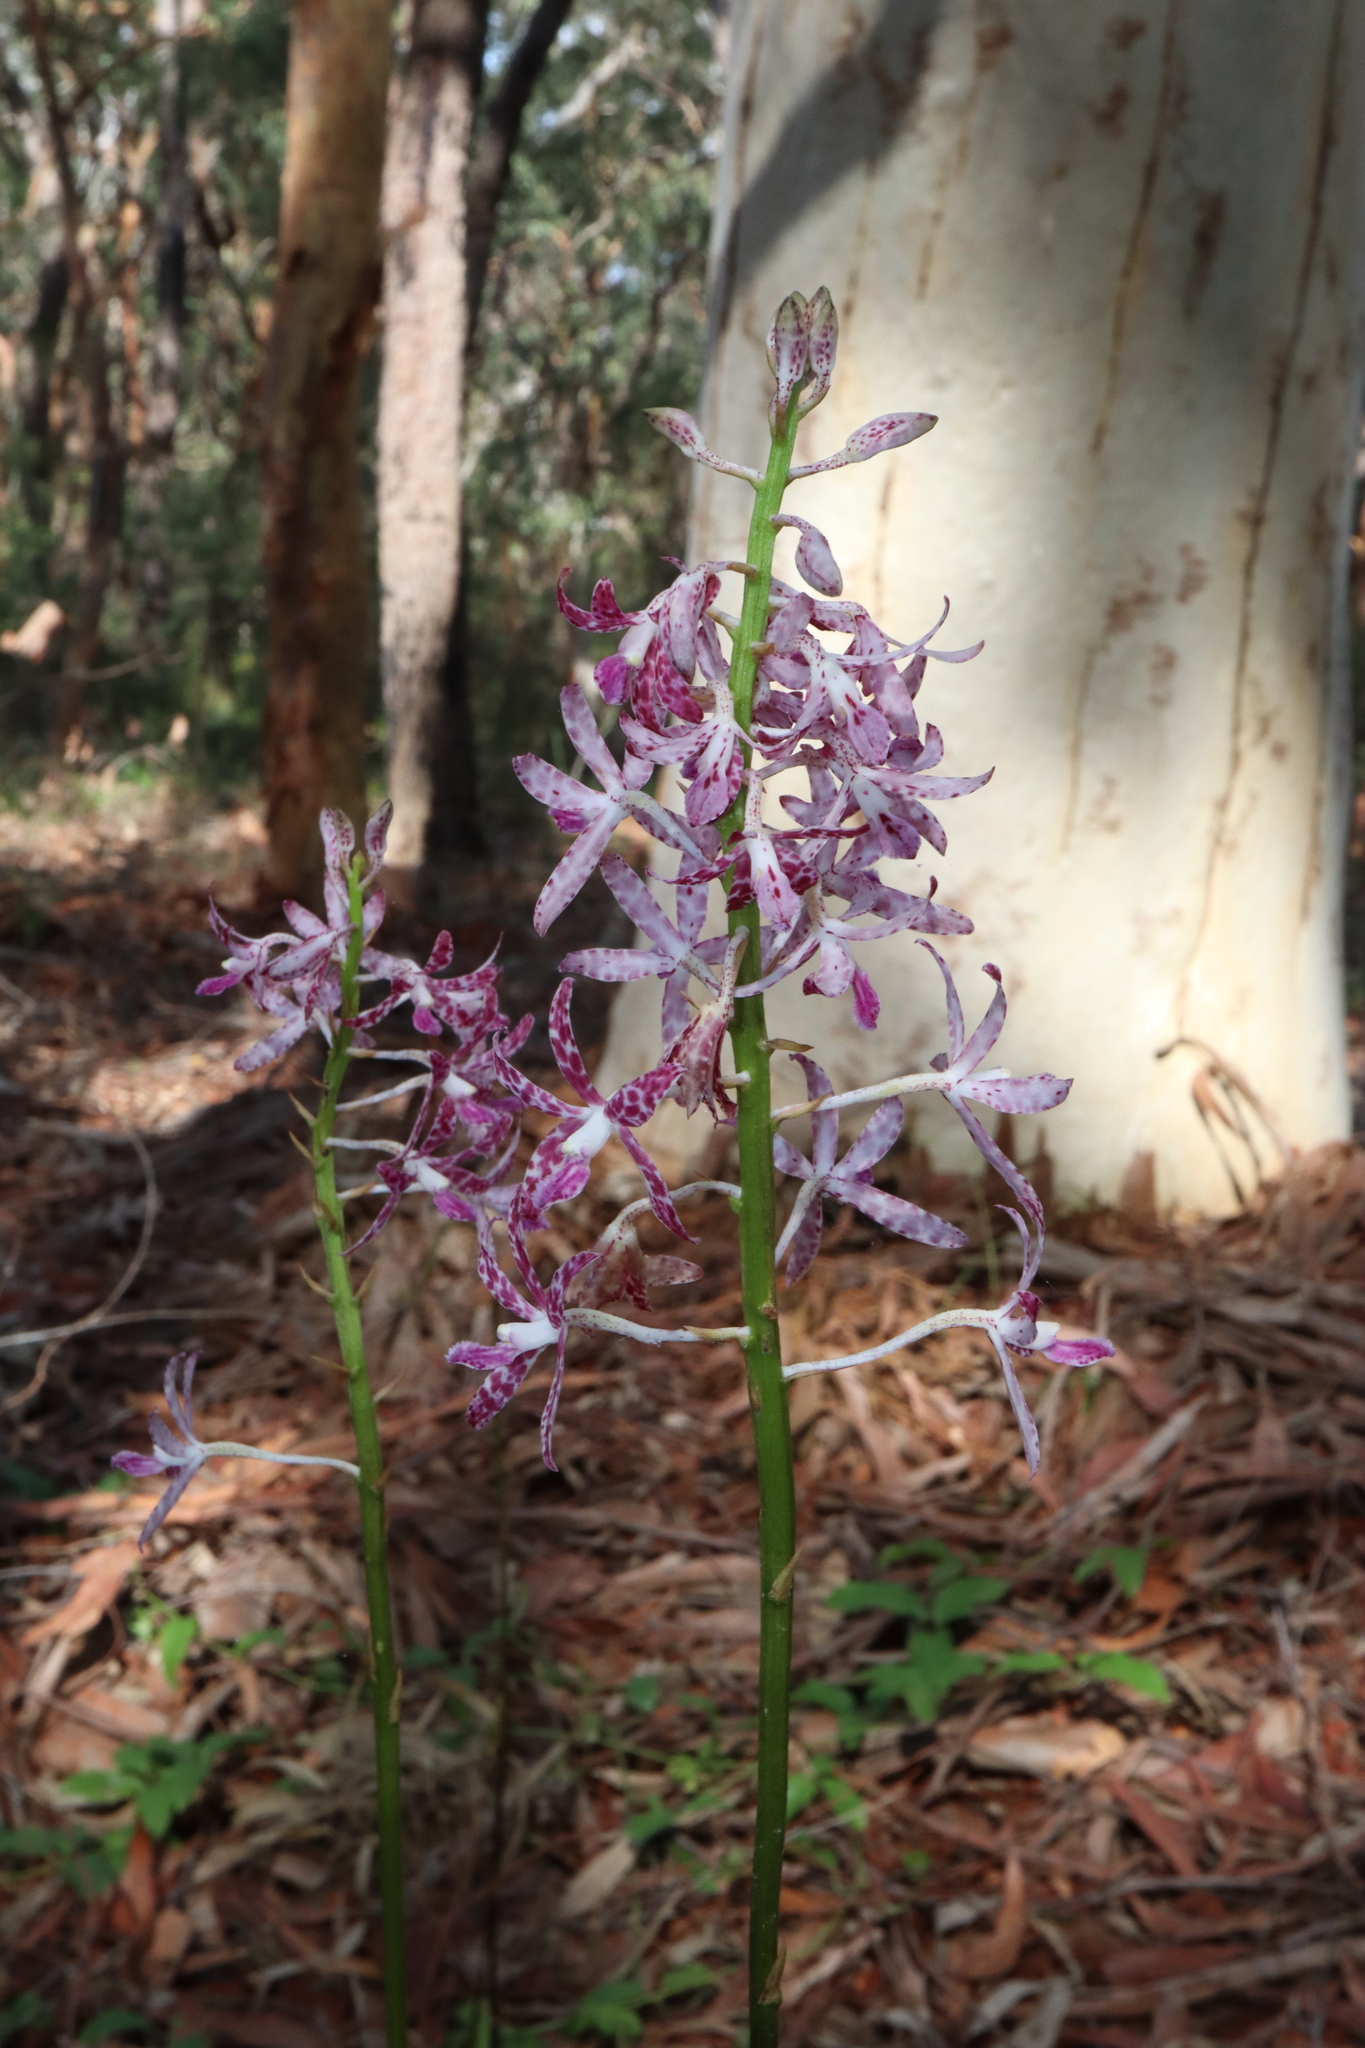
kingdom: Plantae
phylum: Tracheophyta
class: Liliopsida
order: Asparagales
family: Orchidaceae
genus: Dipodium
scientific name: Dipodium variegatum
